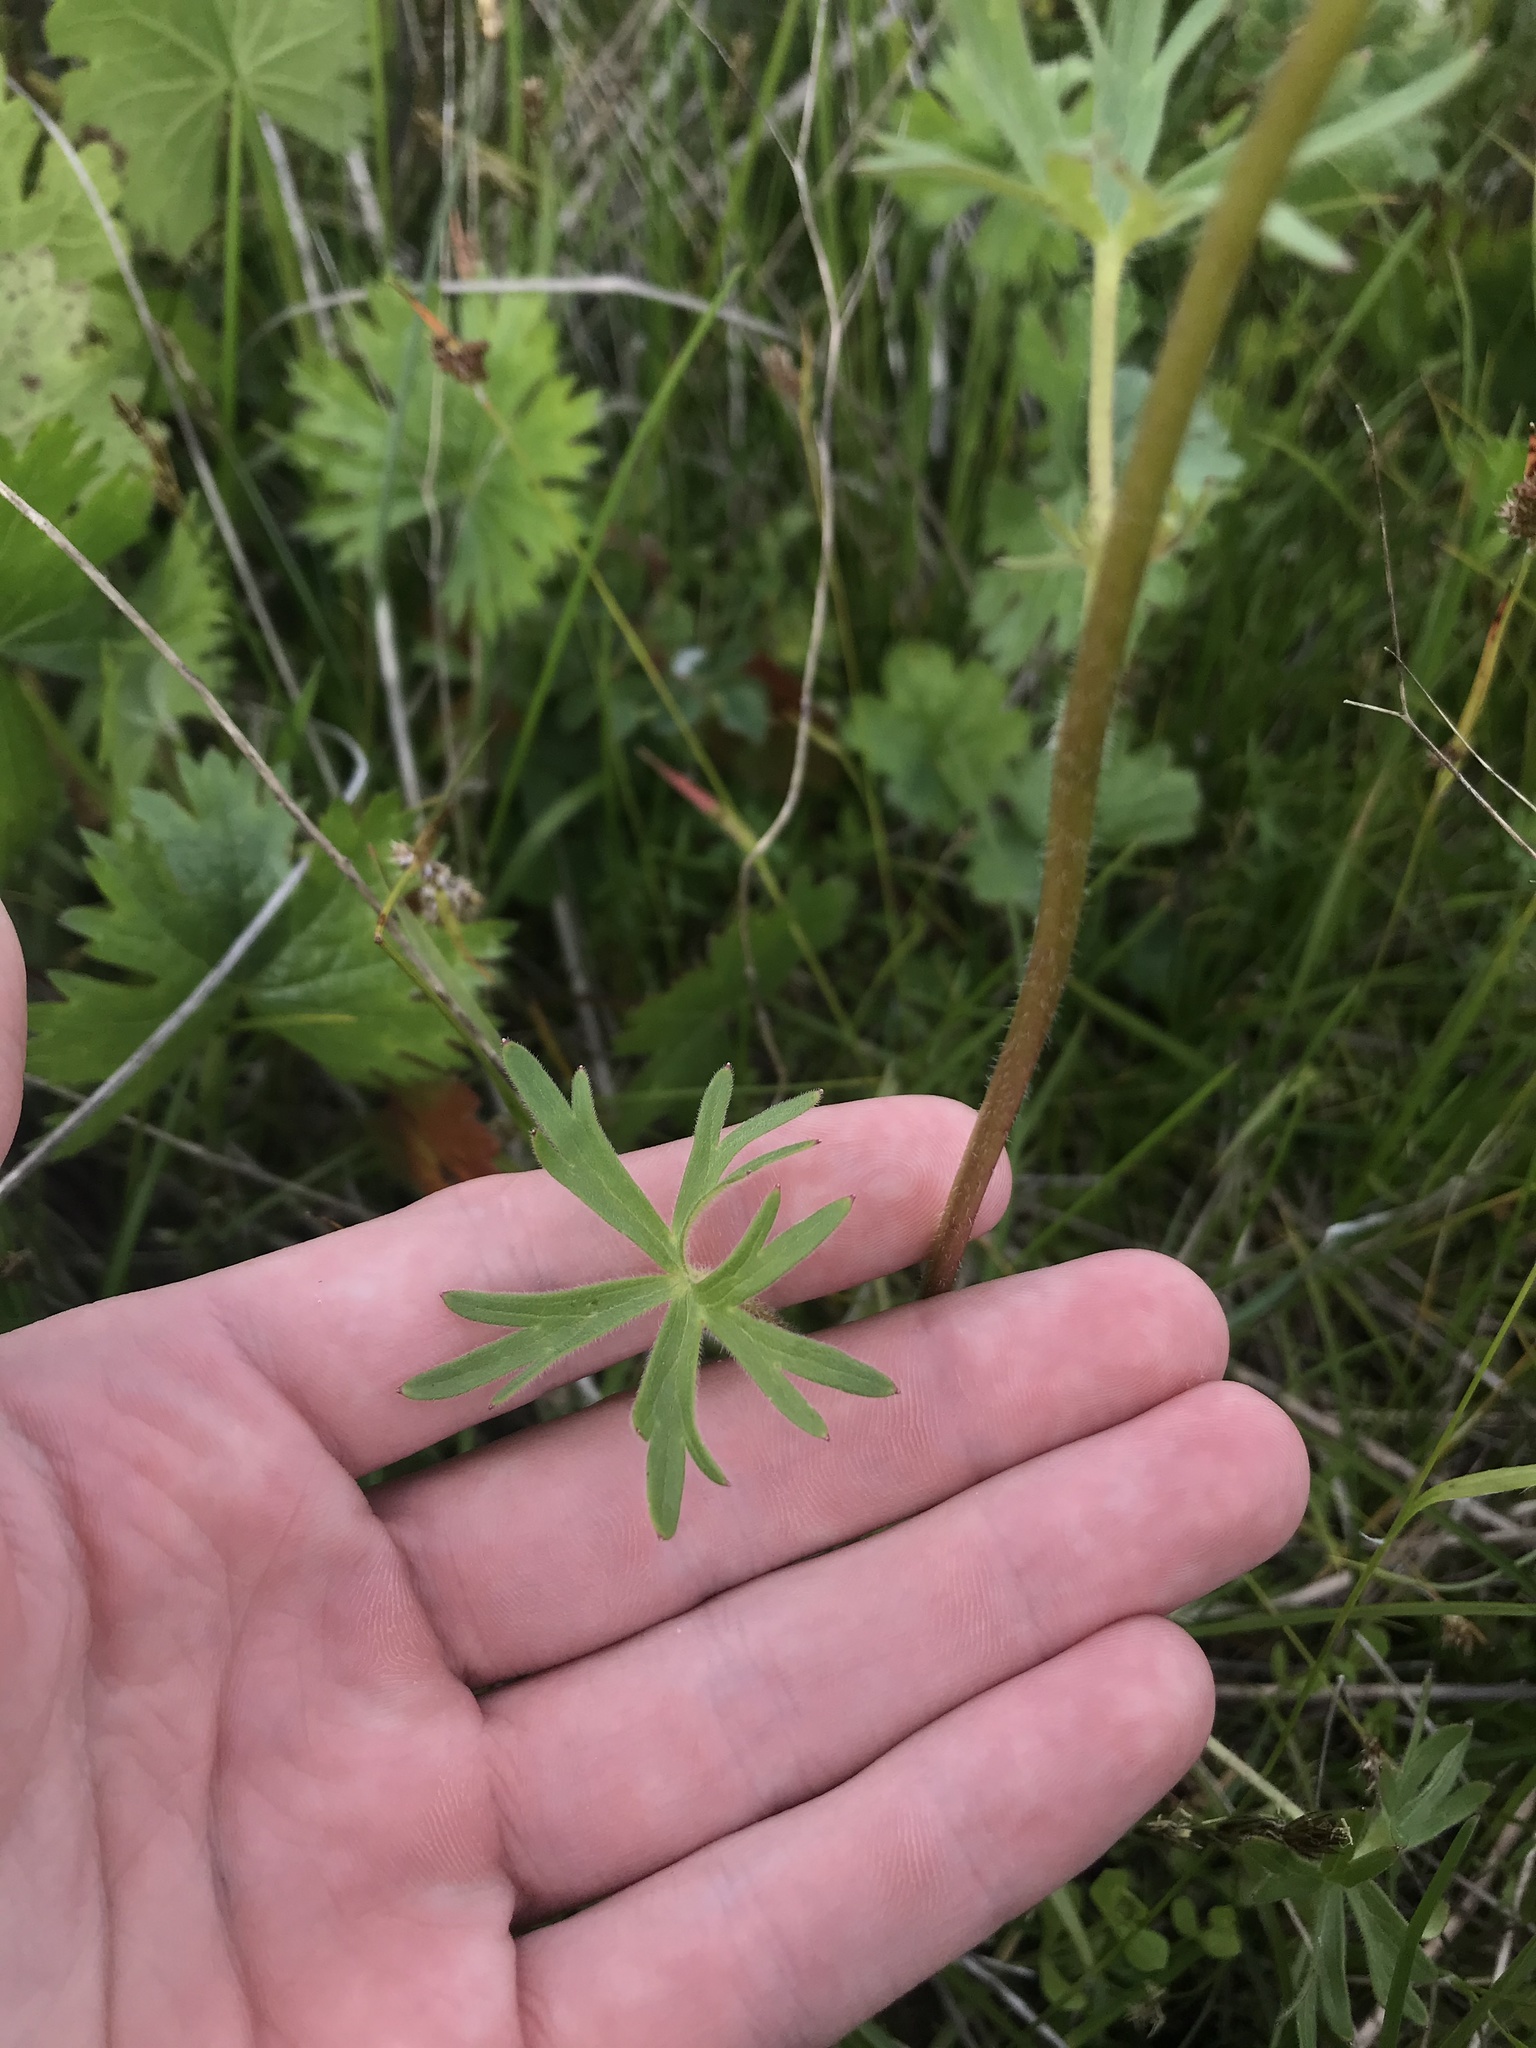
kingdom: Plantae
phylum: Tracheophyta
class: Magnoliopsida
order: Ranunculales
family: Ranunculaceae
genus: Delphinium
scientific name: Delphinium pavonaceum
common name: Peacock larkspur
